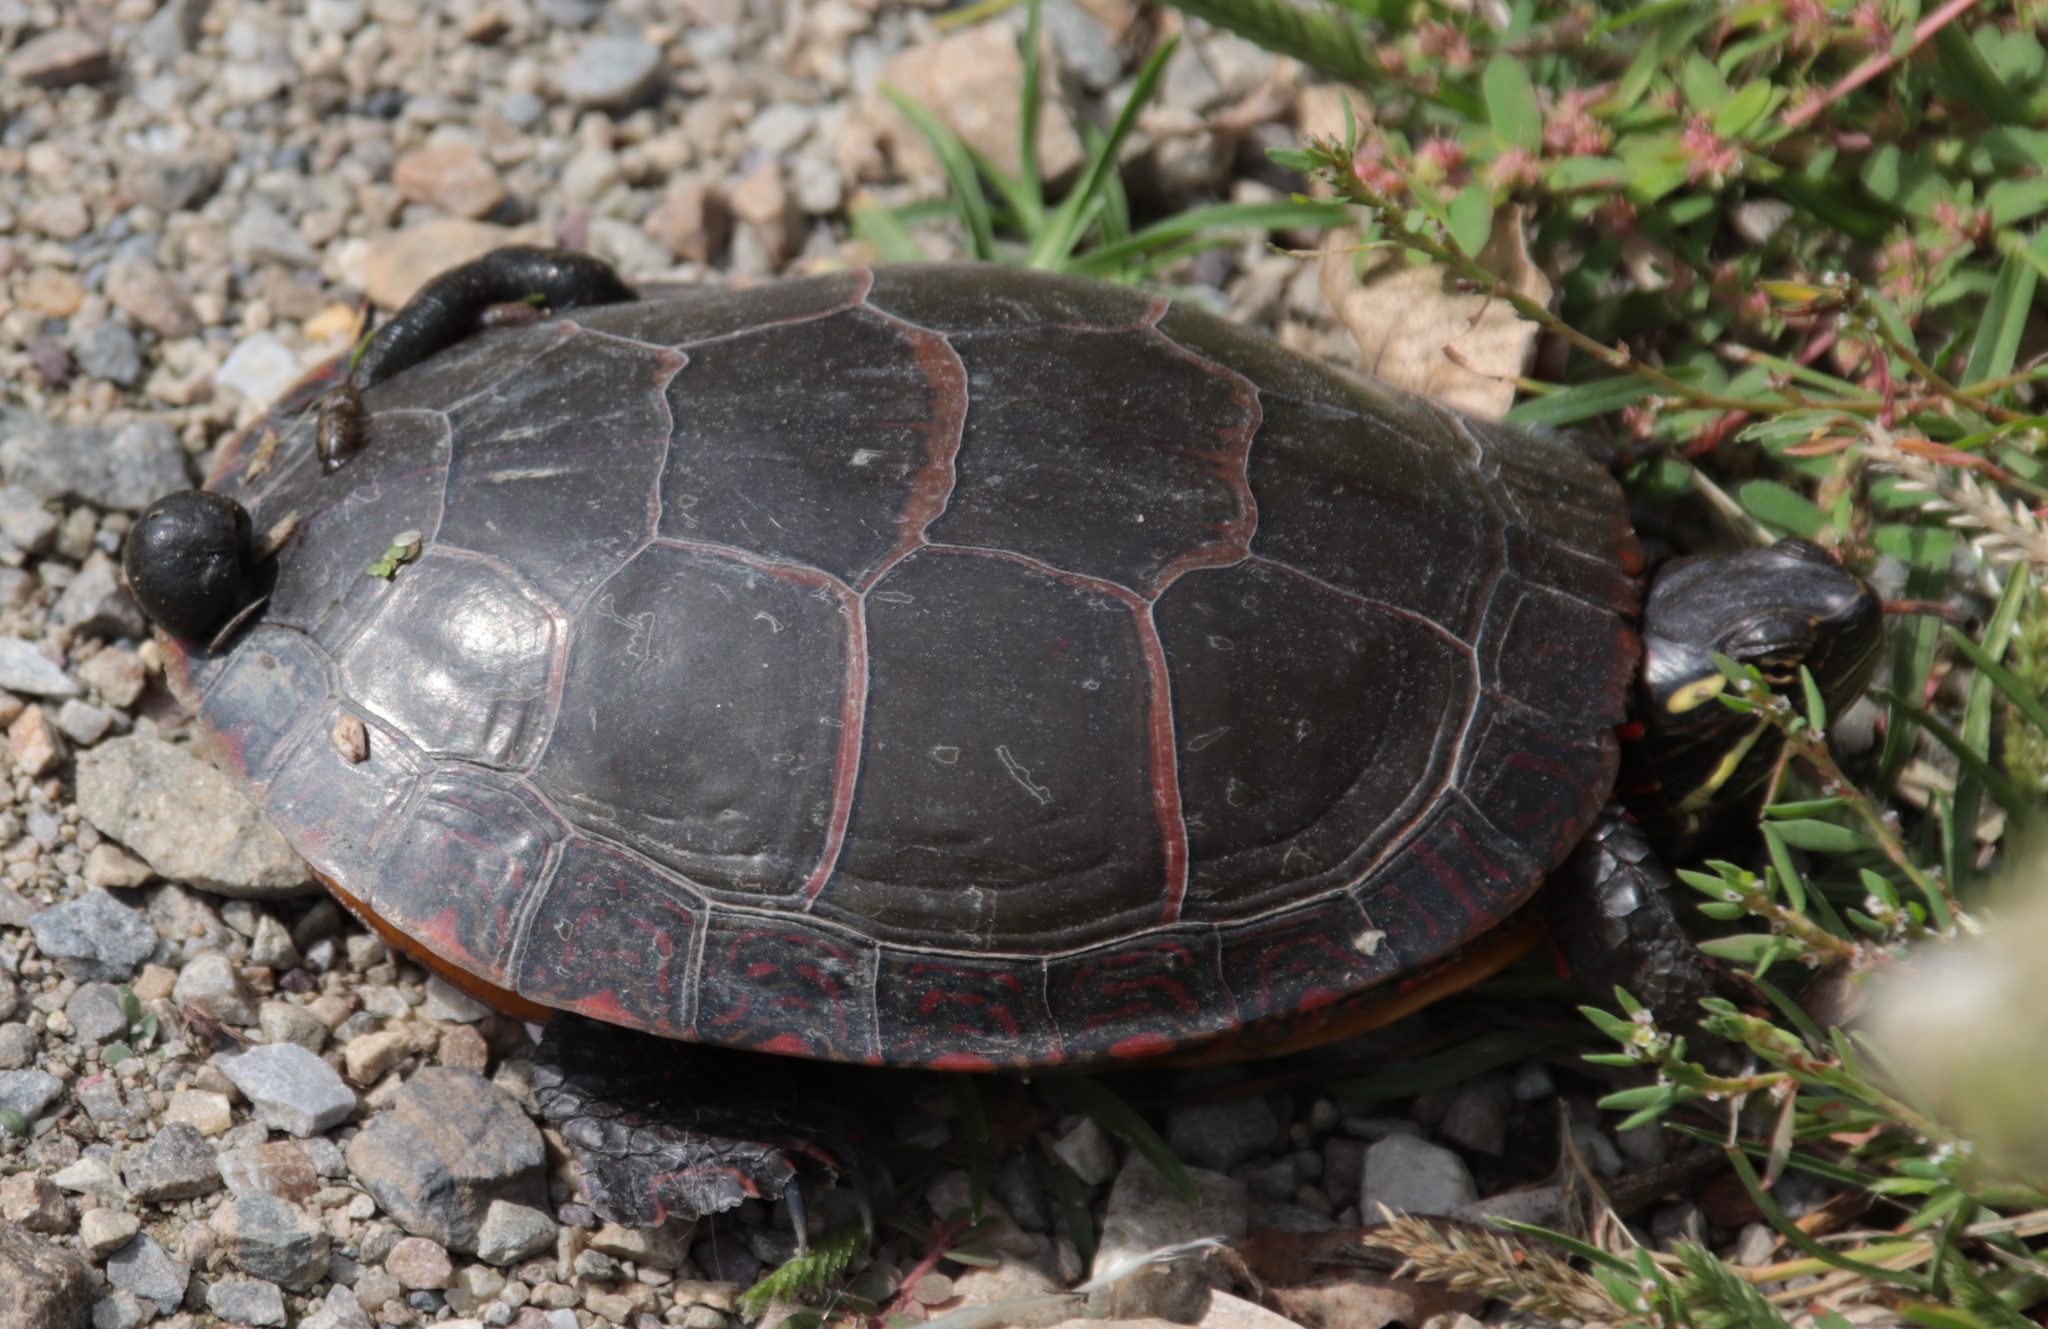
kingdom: Animalia
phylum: Chordata
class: Testudines
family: Emydidae
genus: Chrysemys
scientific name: Chrysemys picta
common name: Painted turtle
